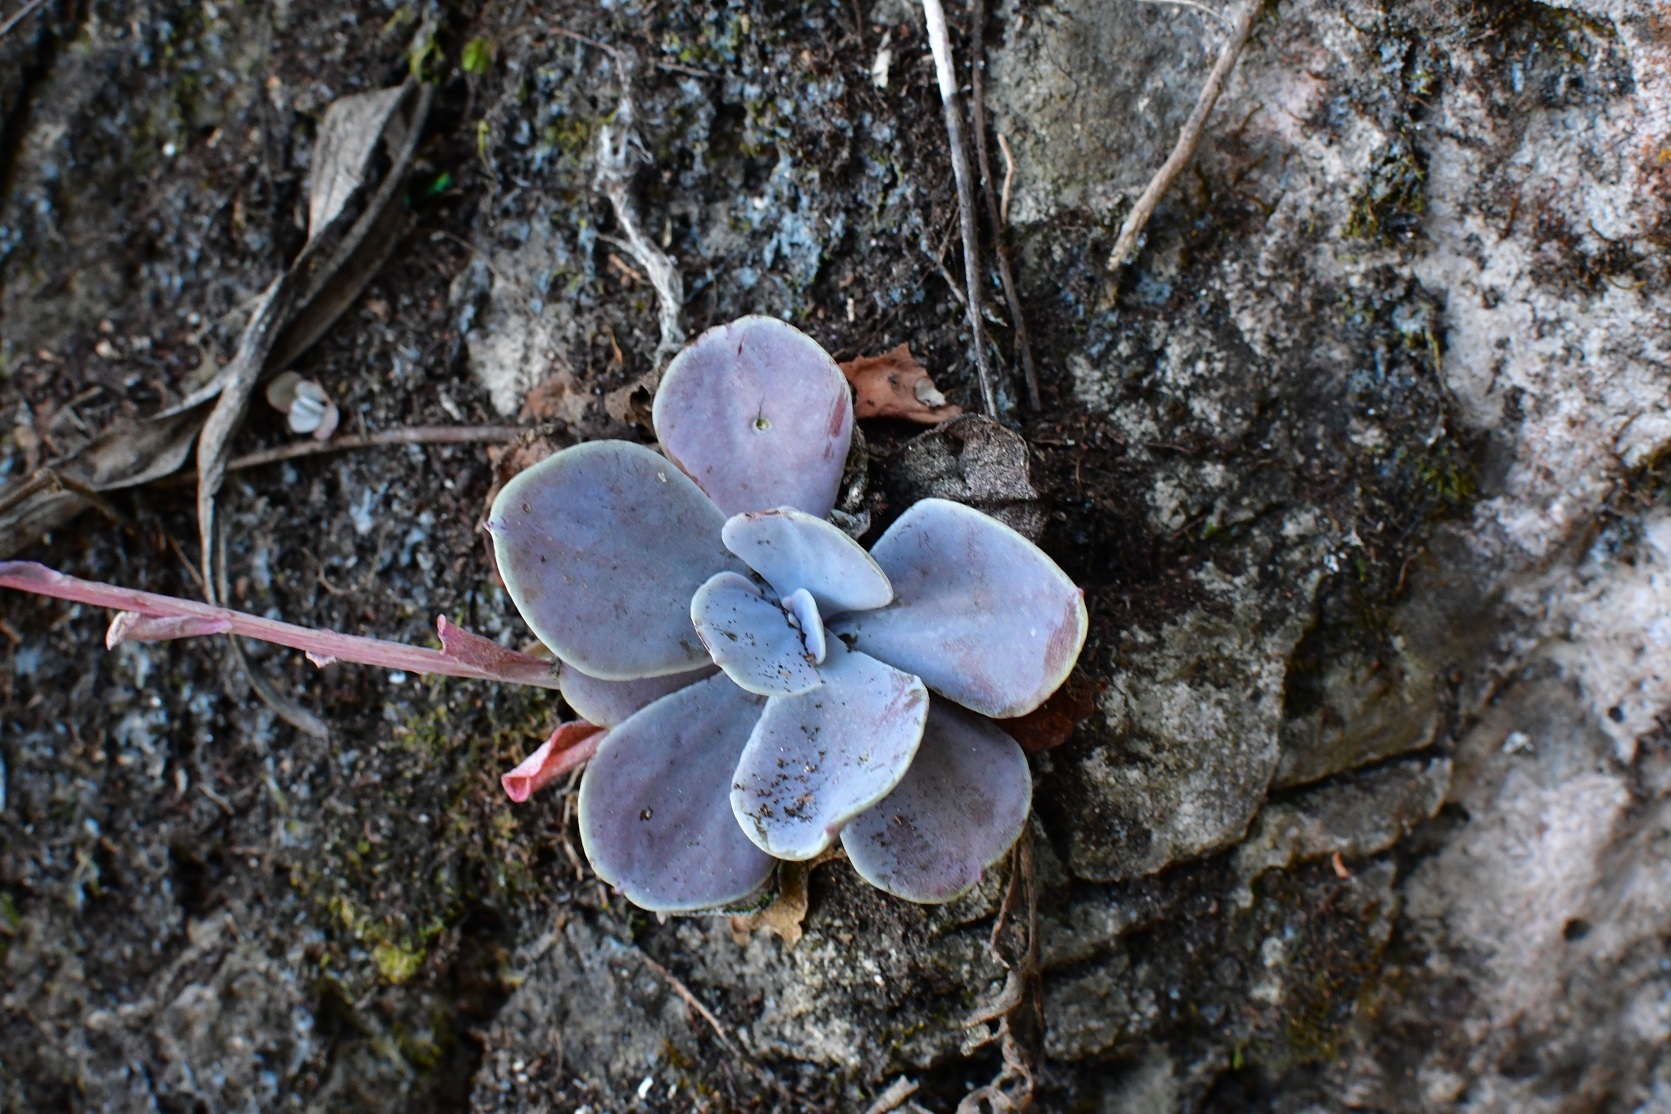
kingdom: Plantae
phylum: Tracheophyta
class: Magnoliopsida
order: Saxifragales
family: Crassulaceae
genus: Echeveria
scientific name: Echeveria prunina
